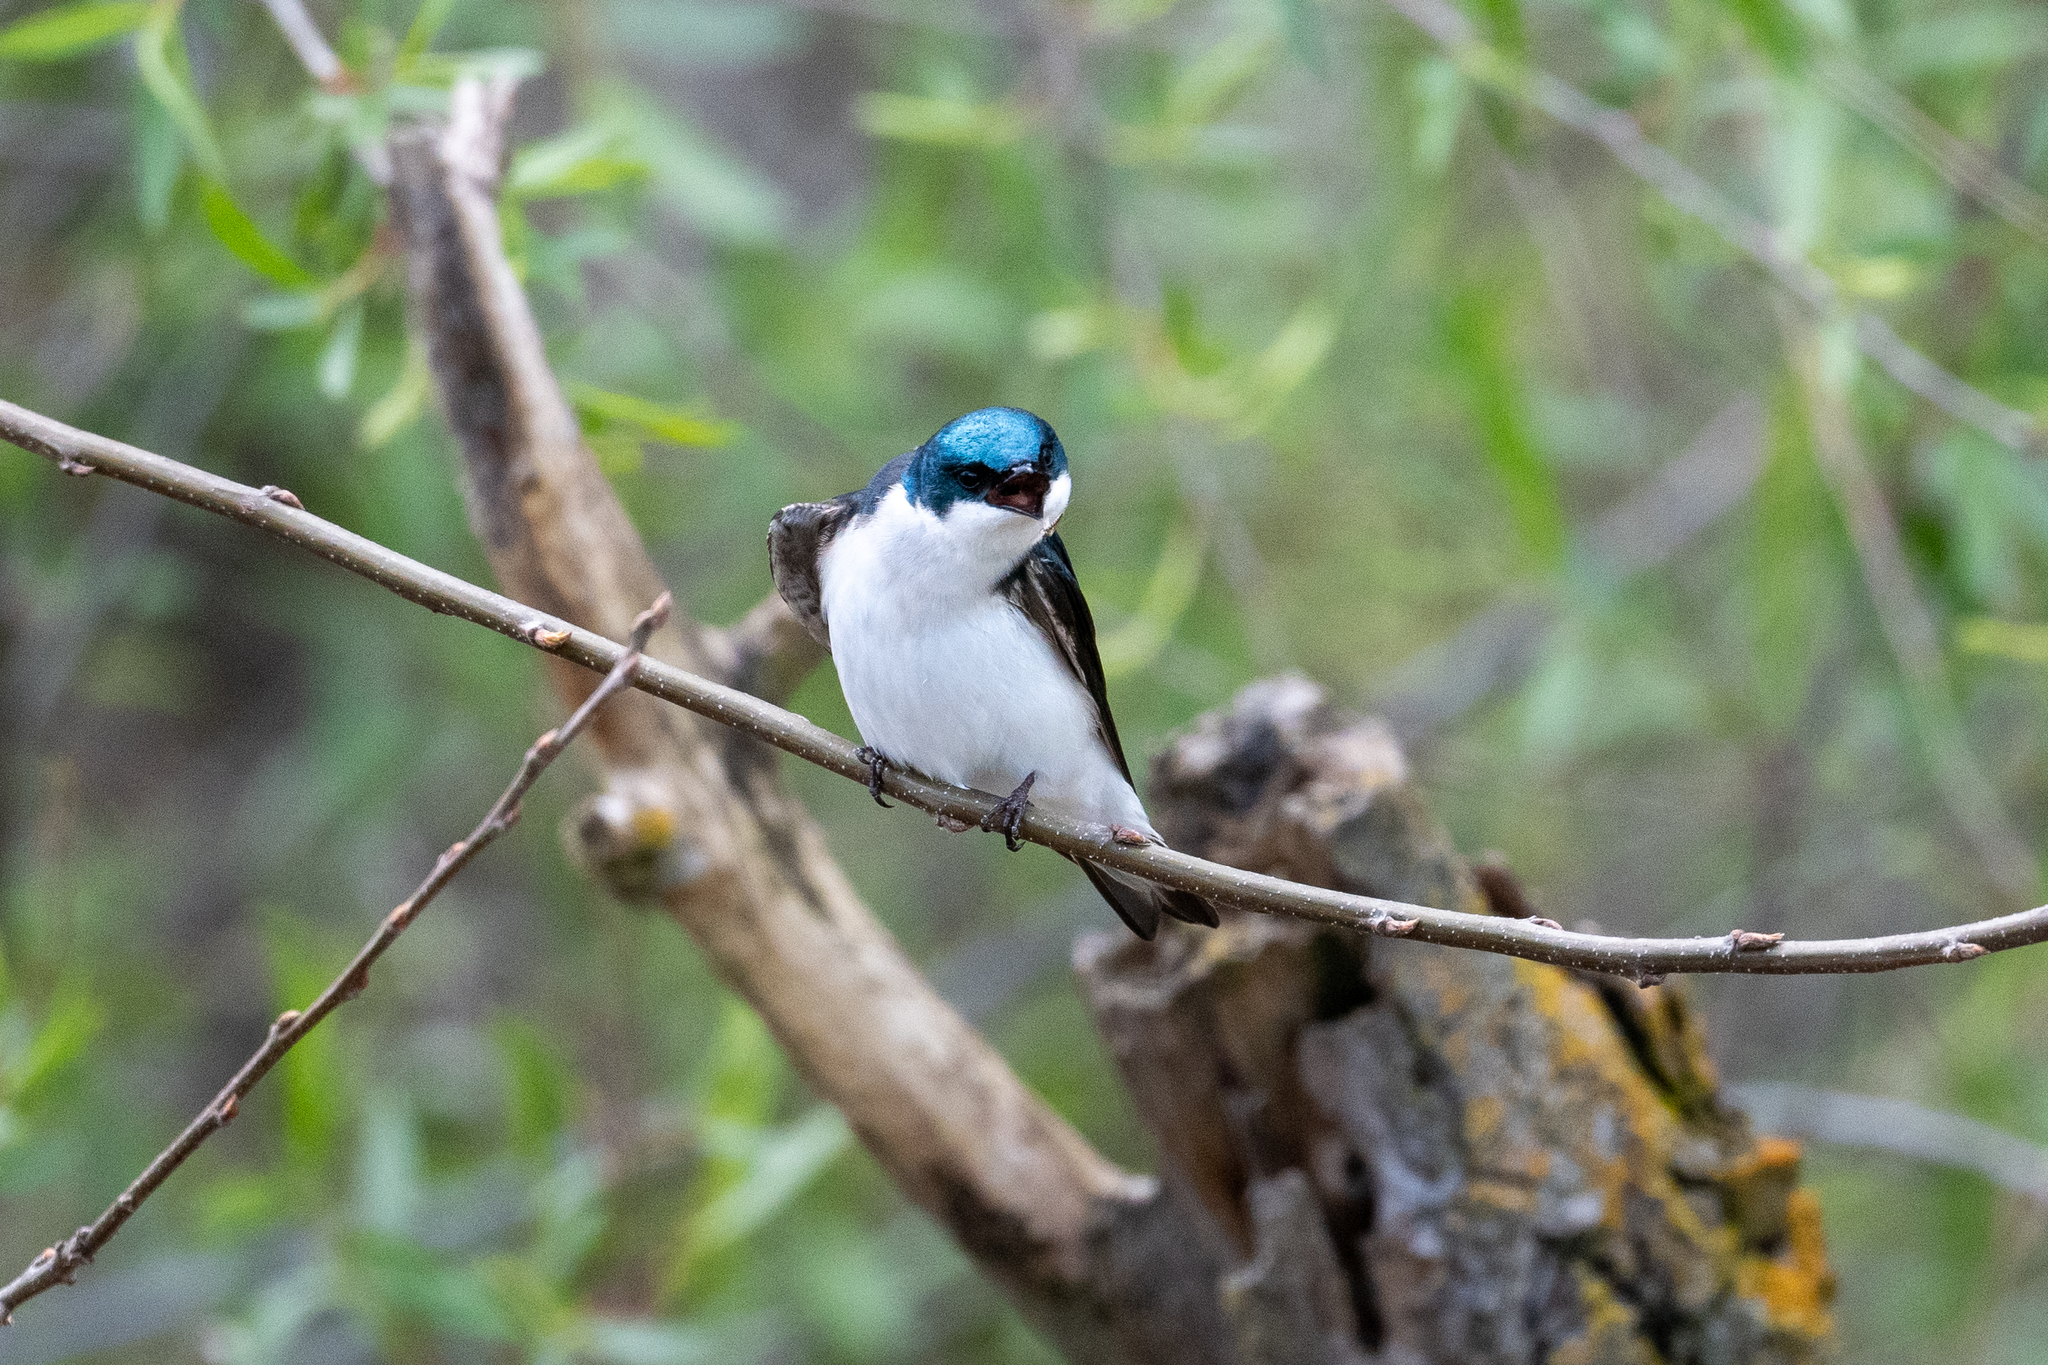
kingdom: Animalia
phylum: Chordata
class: Aves
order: Passeriformes
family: Hirundinidae
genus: Tachycineta
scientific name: Tachycineta bicolor
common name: Tree swallow
